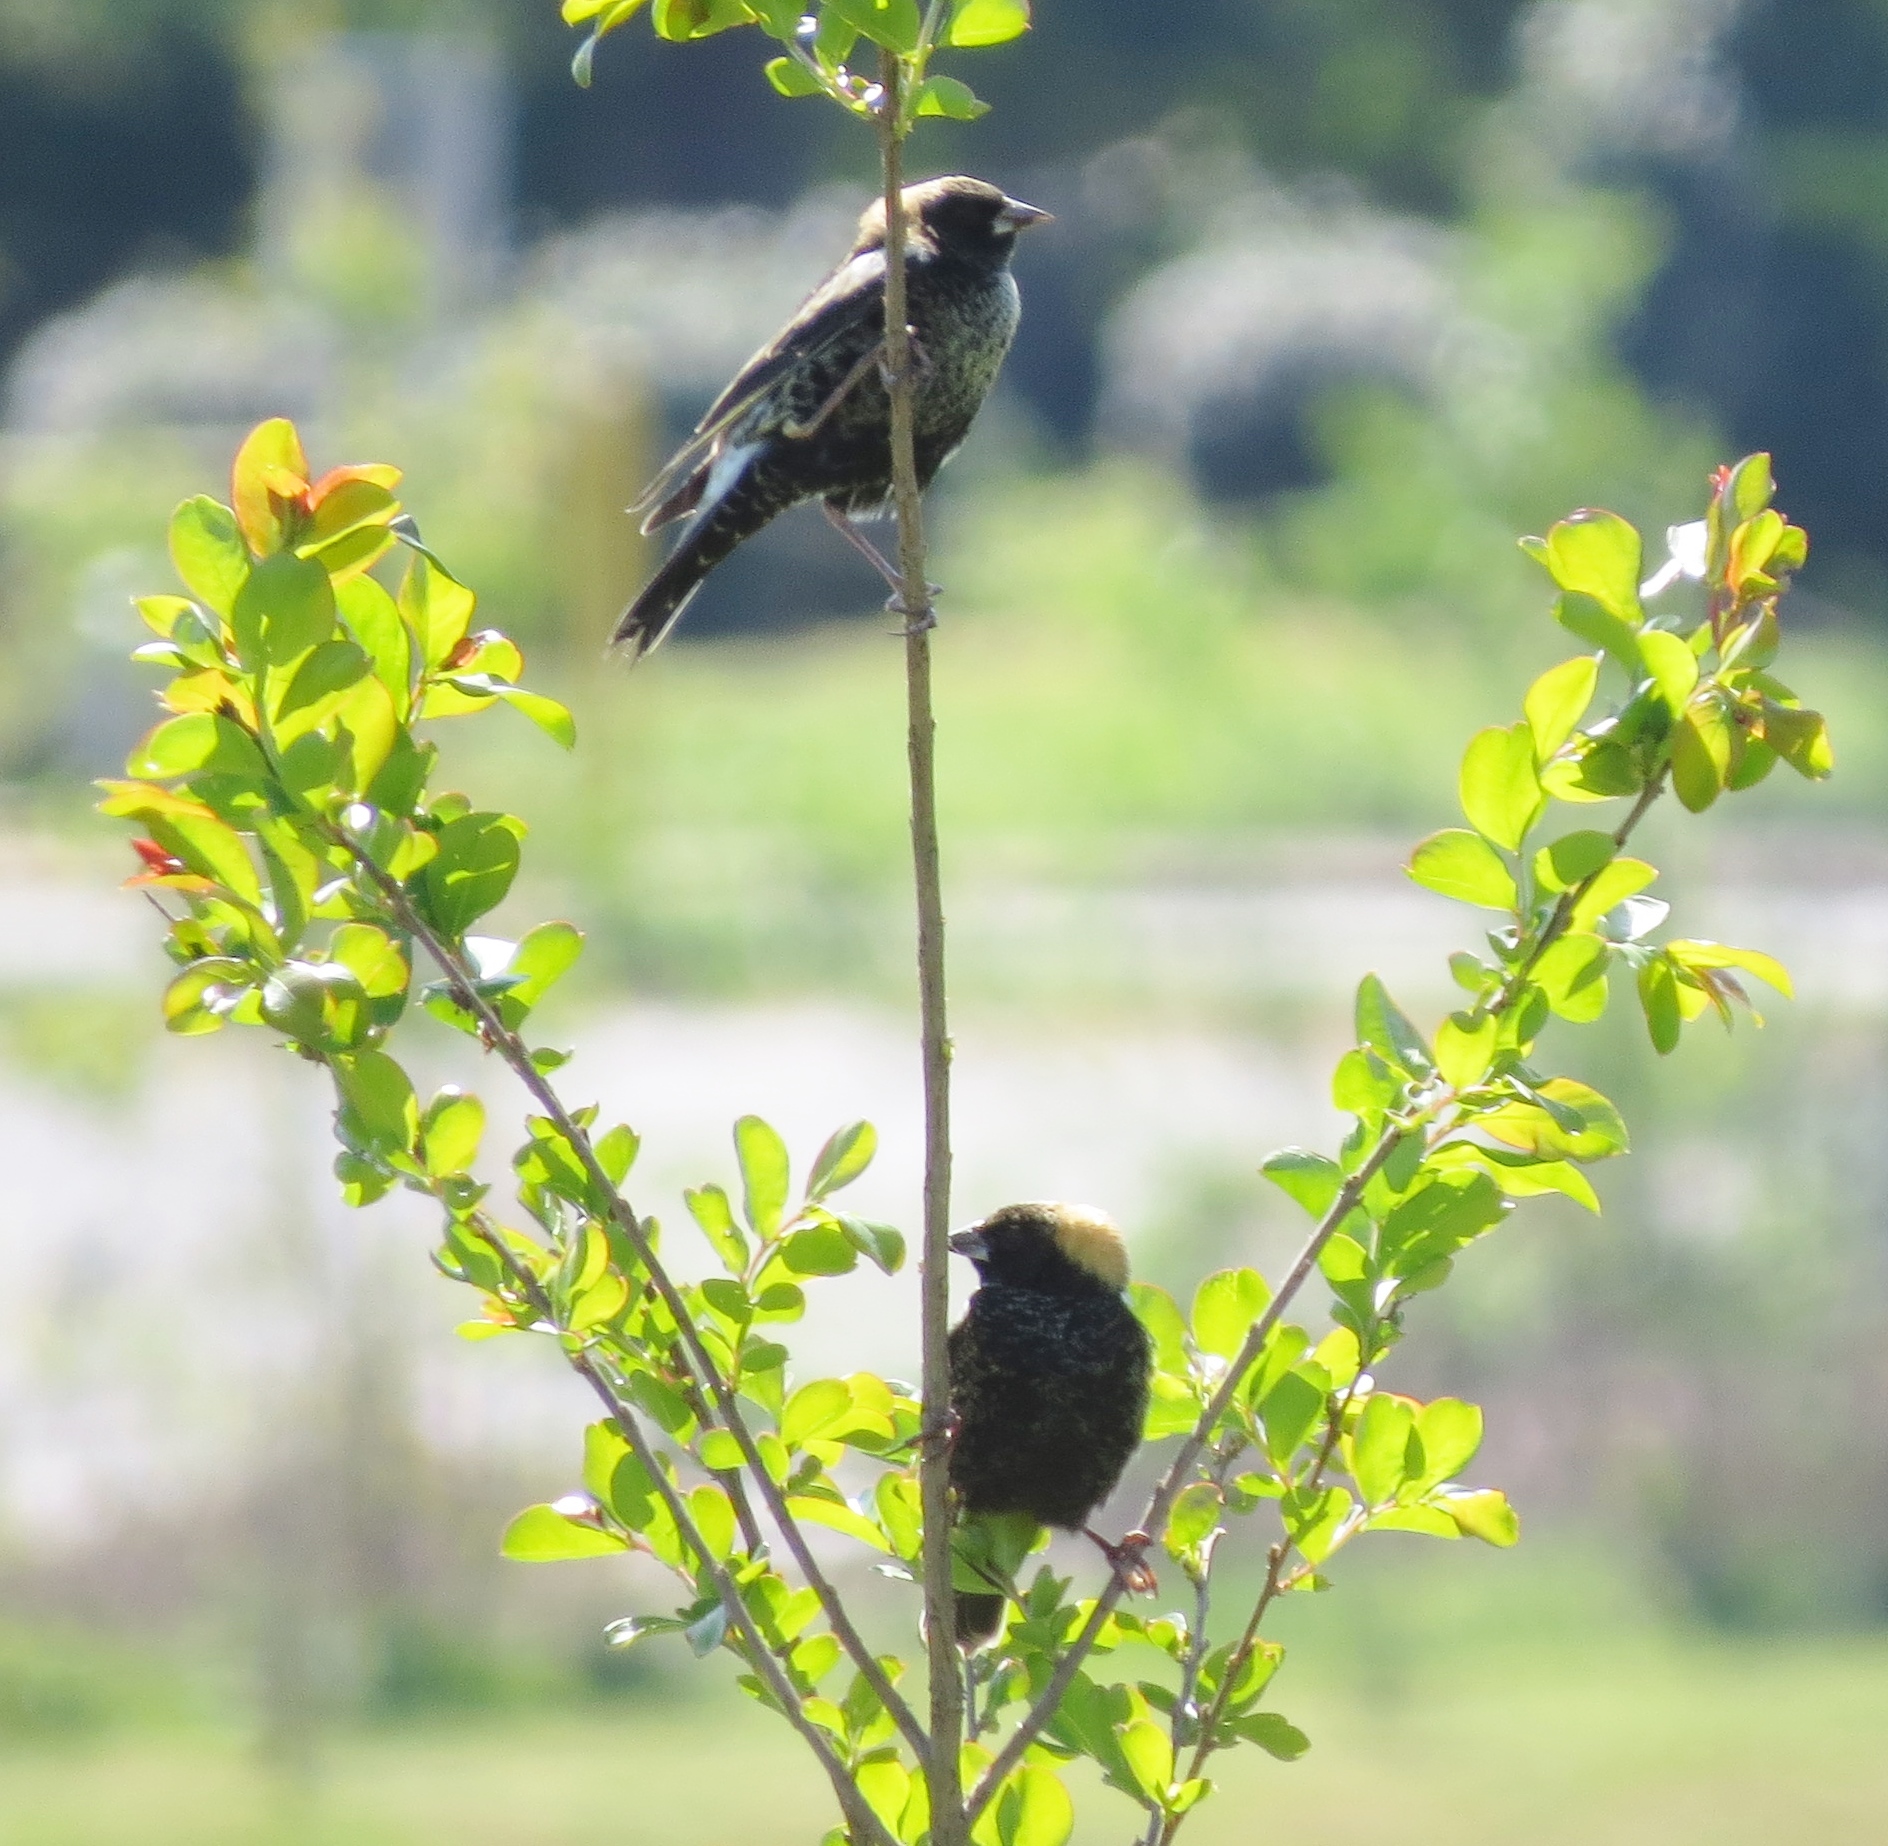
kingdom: Animalia
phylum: Chordata
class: Aves
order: Passeriformes
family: Icteridae
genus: Dolichonyx
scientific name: Dolichonyx oryzivorus
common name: Bobolink
